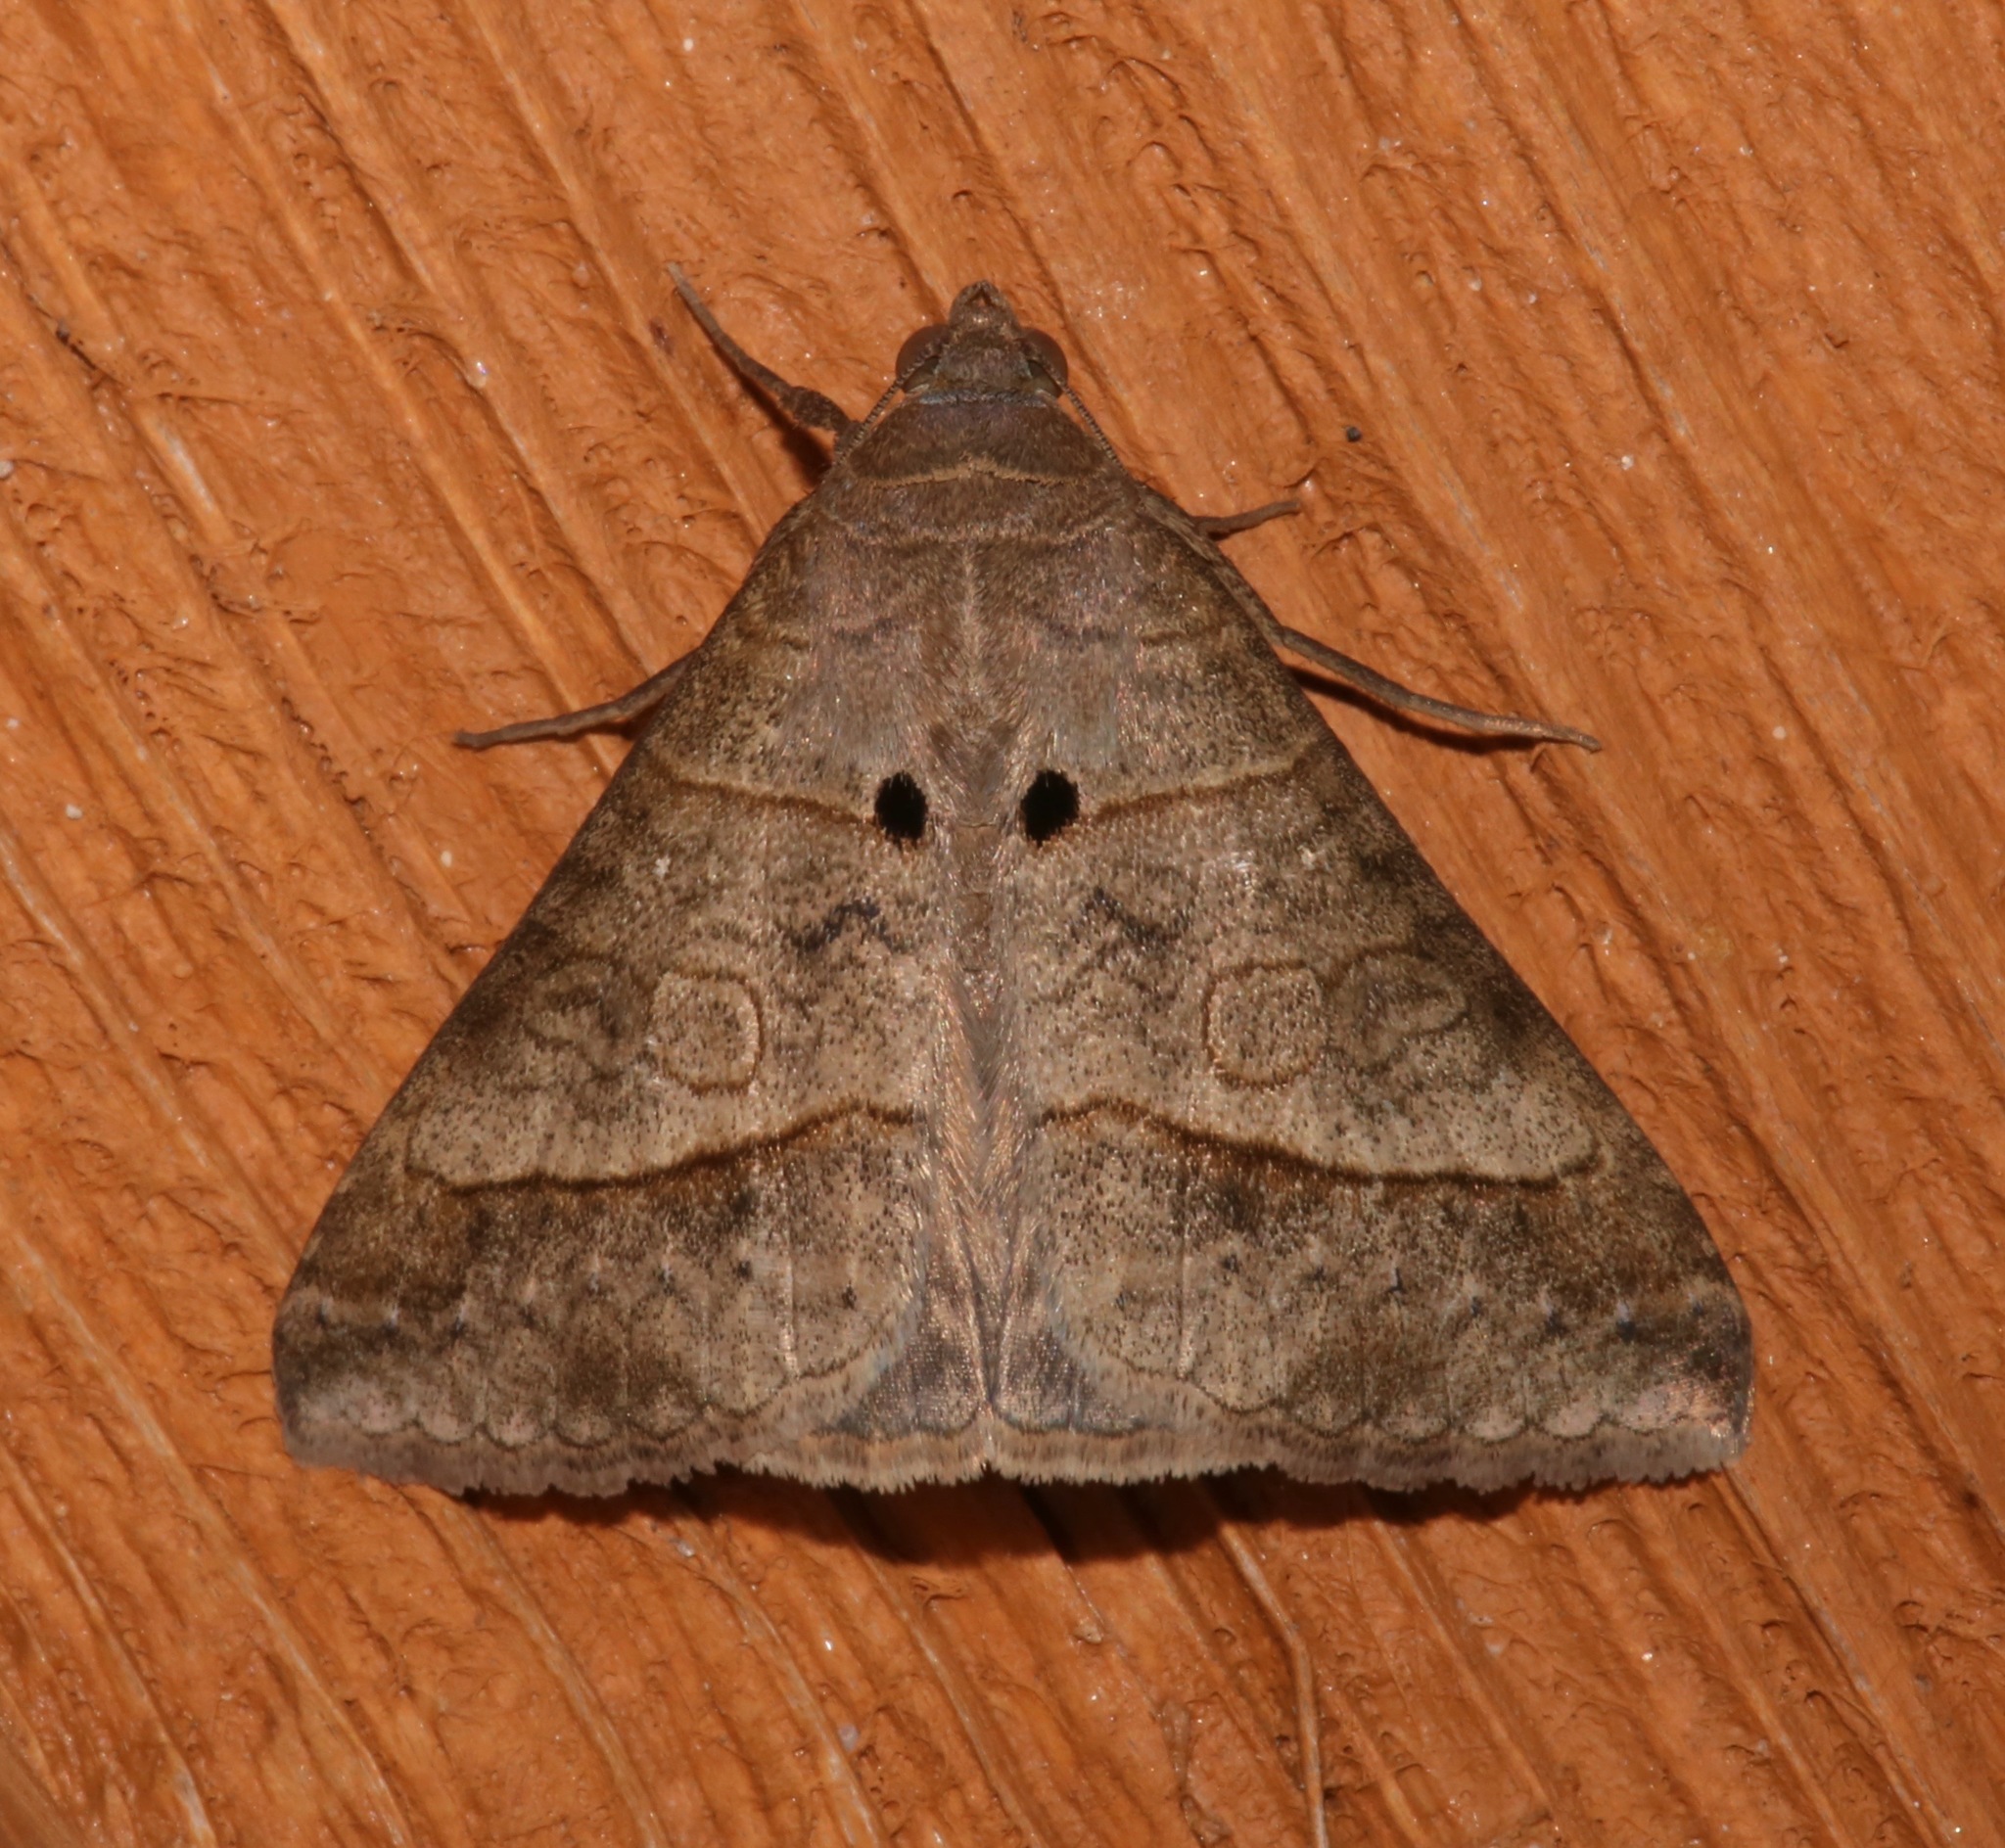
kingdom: Animalia
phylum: Arthropoda
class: Insecta
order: Lepidoptera
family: Erebidae
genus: Mocis
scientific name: Mocis latipes
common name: Striped grass looper
